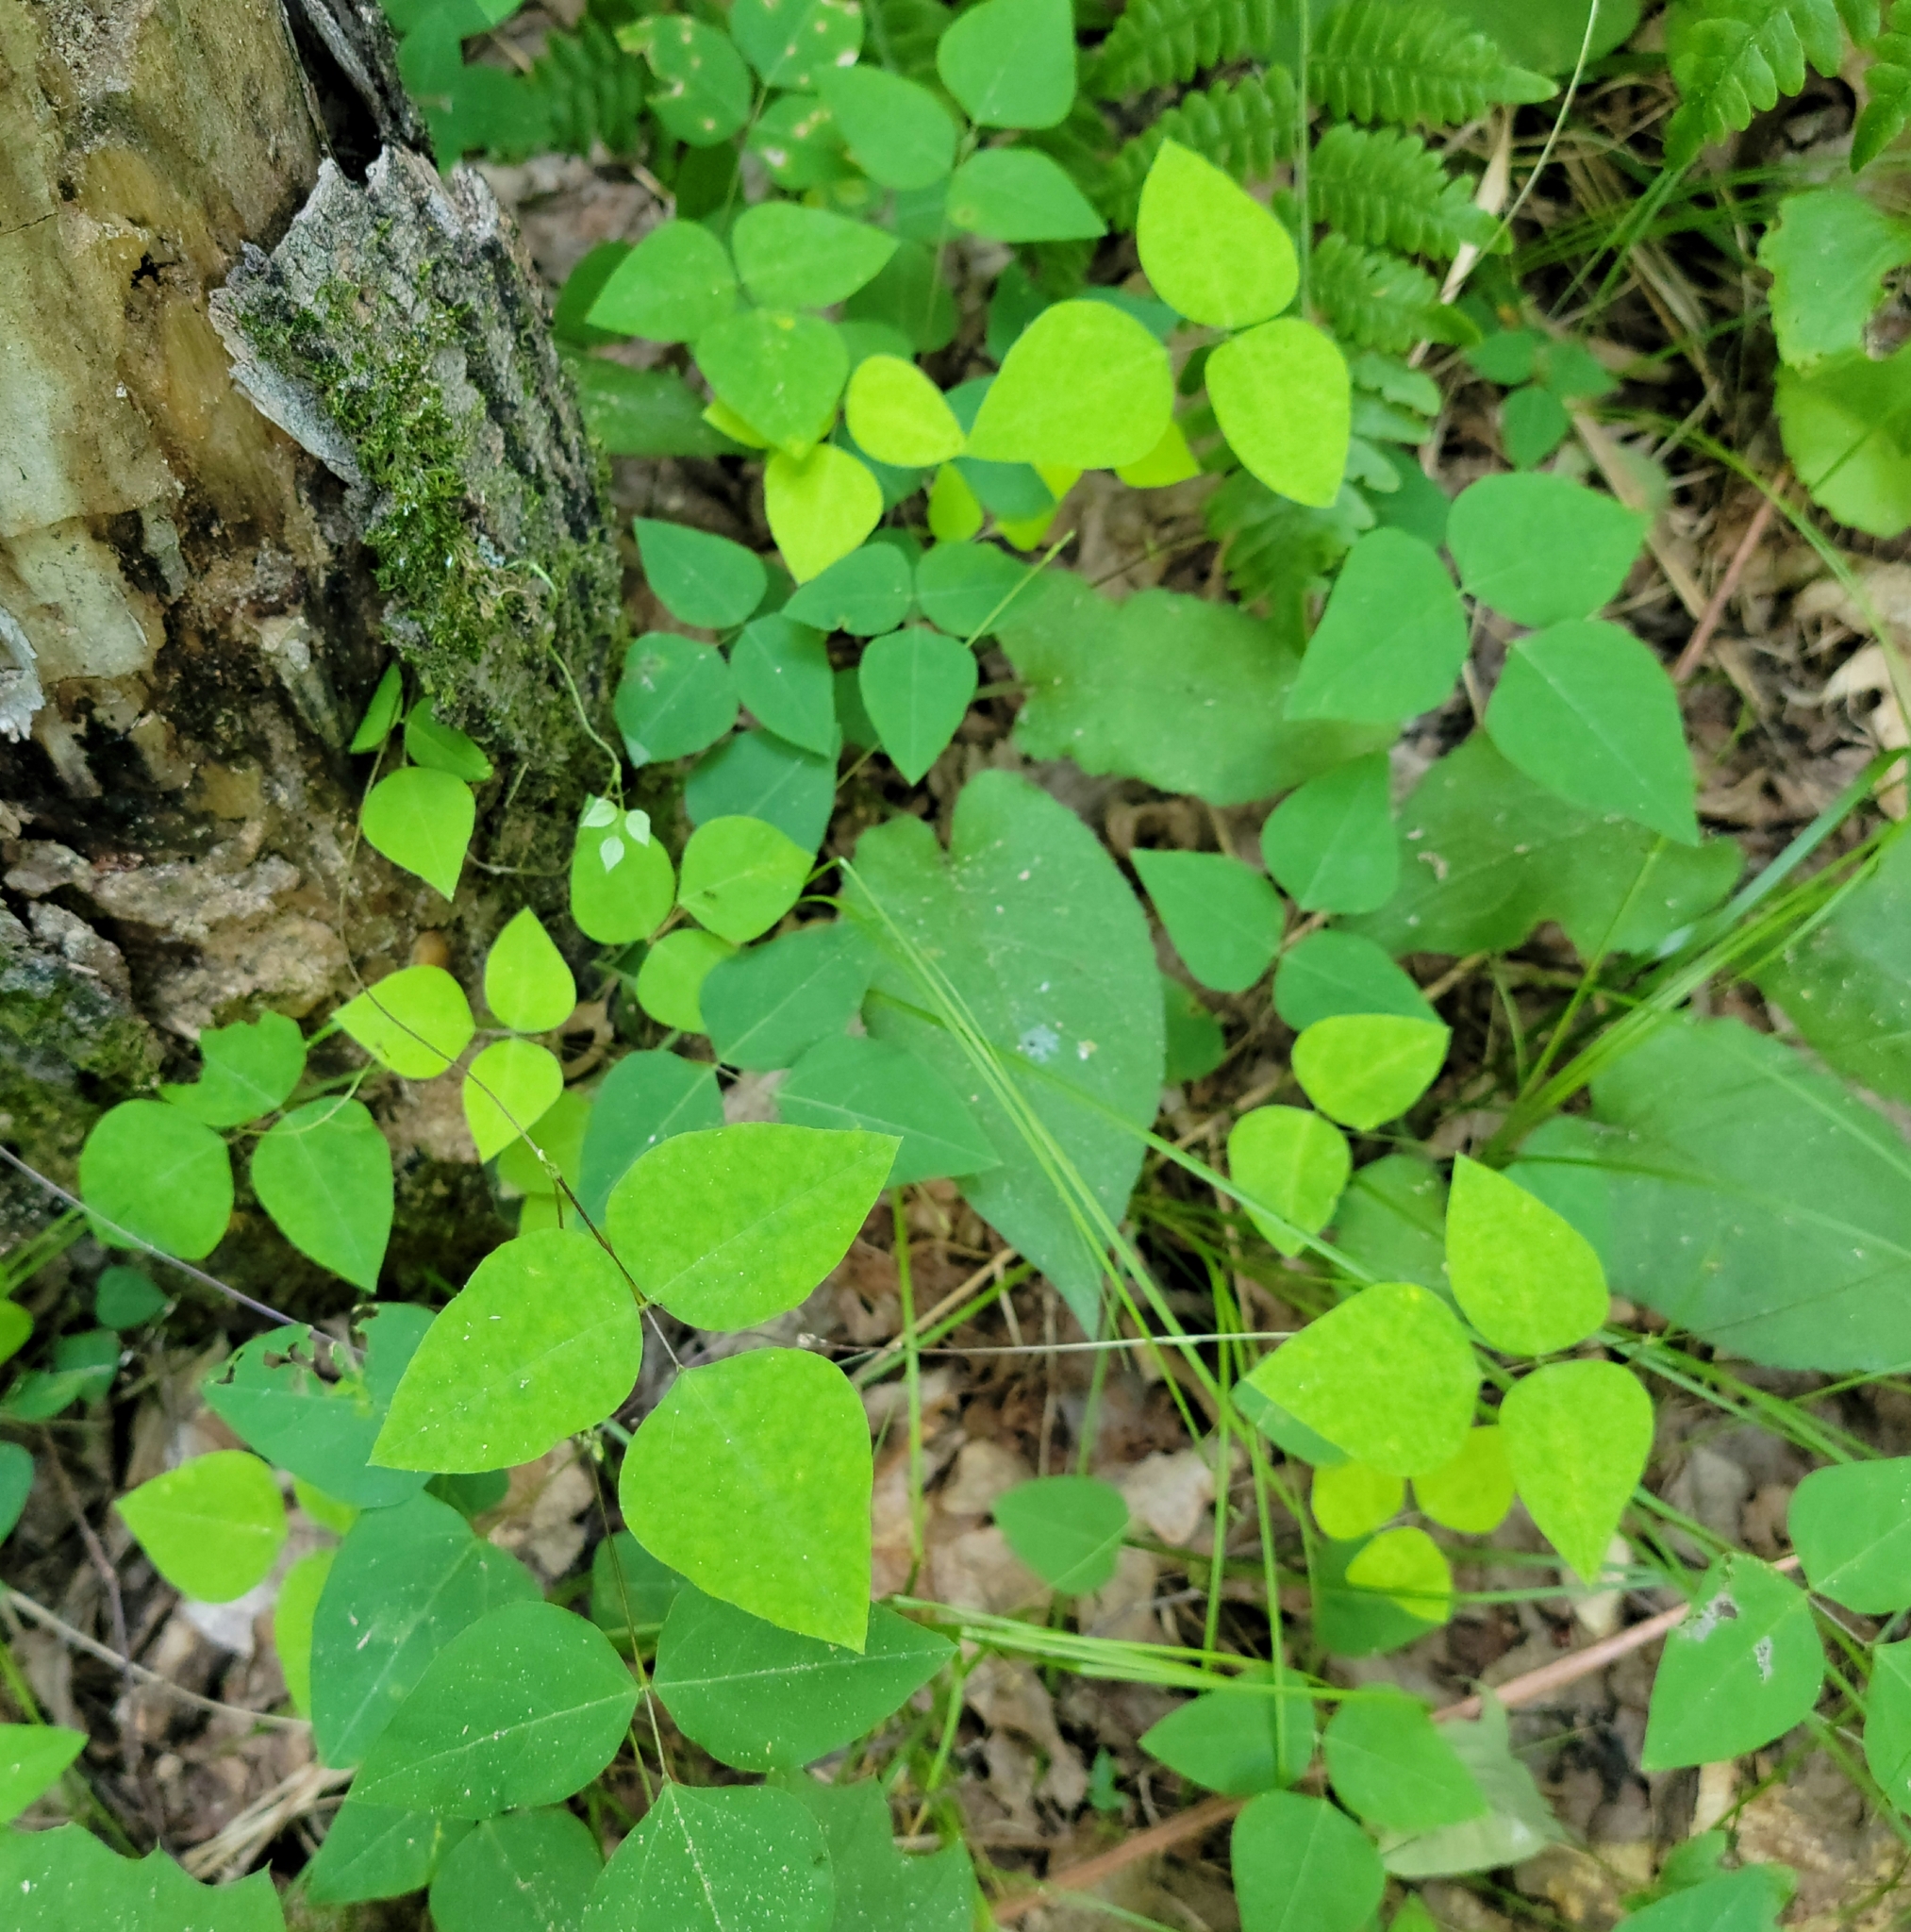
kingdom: Plantae
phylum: Tracheophyta
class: Magnoliopsida
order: Fabales
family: Fabaceae
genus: Amphicarpaea
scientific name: Amphicarpaea bracteata
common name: American hog peanut
